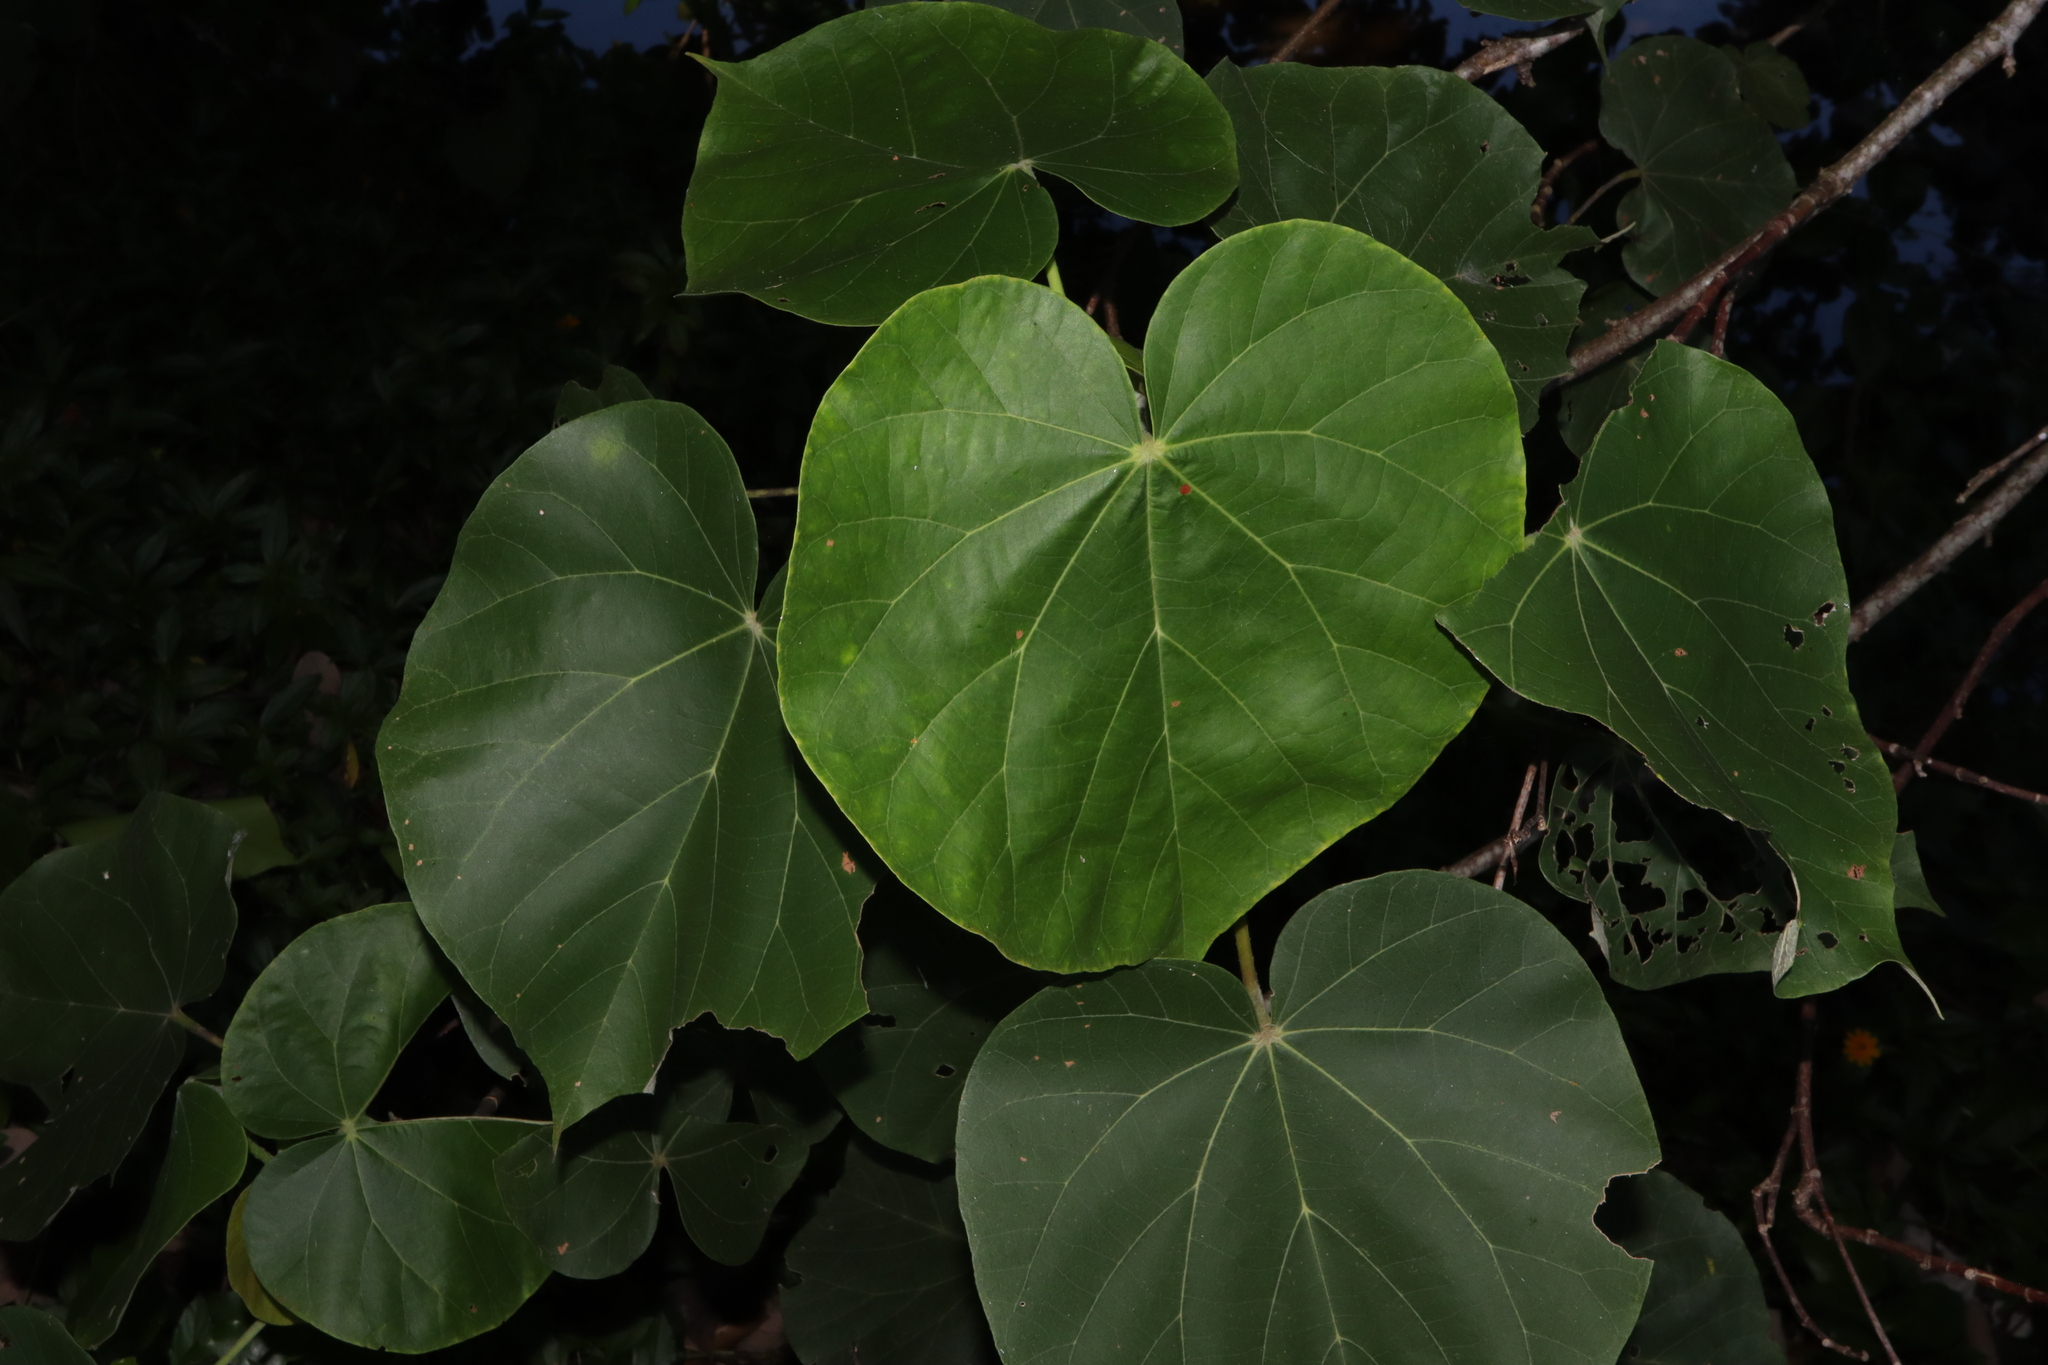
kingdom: Plantae
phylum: Tracheophyta
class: Magnoliopsida
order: Malvales
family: Malvaceae
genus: Talipariti
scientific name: Talipariti tiliaceum
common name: Sea hibiscus
